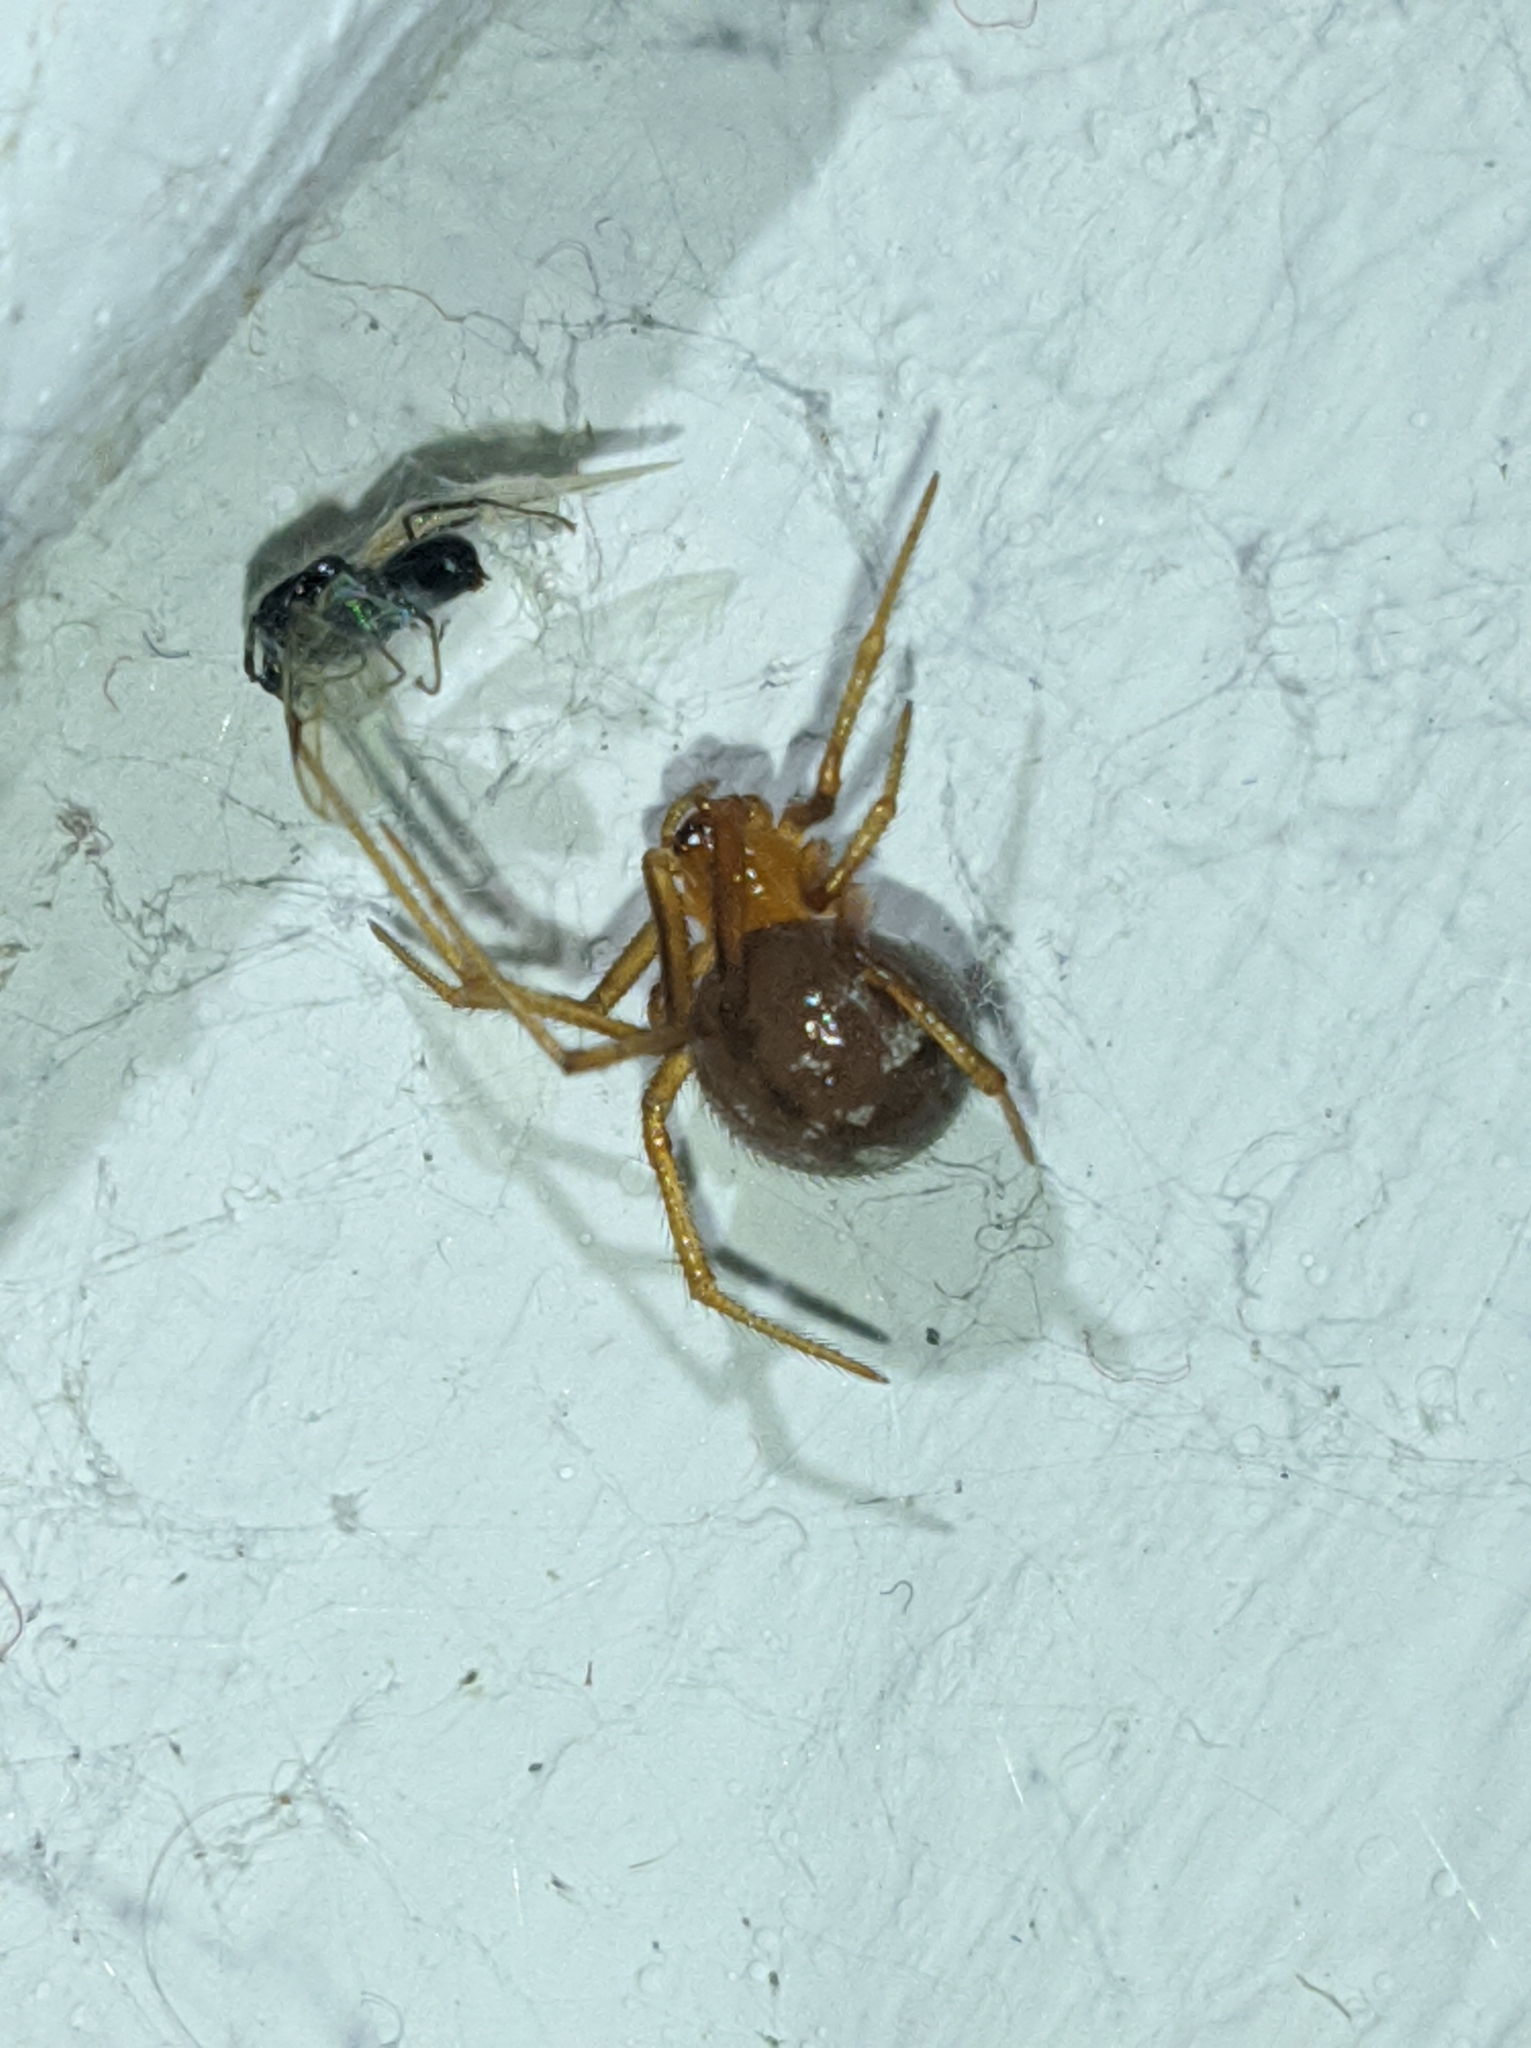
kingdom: Animalia
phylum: Arthropoda
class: Arachnida
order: Araneae
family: Theridiidae
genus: Nesticodes
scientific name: Nesticodes rufipes
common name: Cobweb spiders
